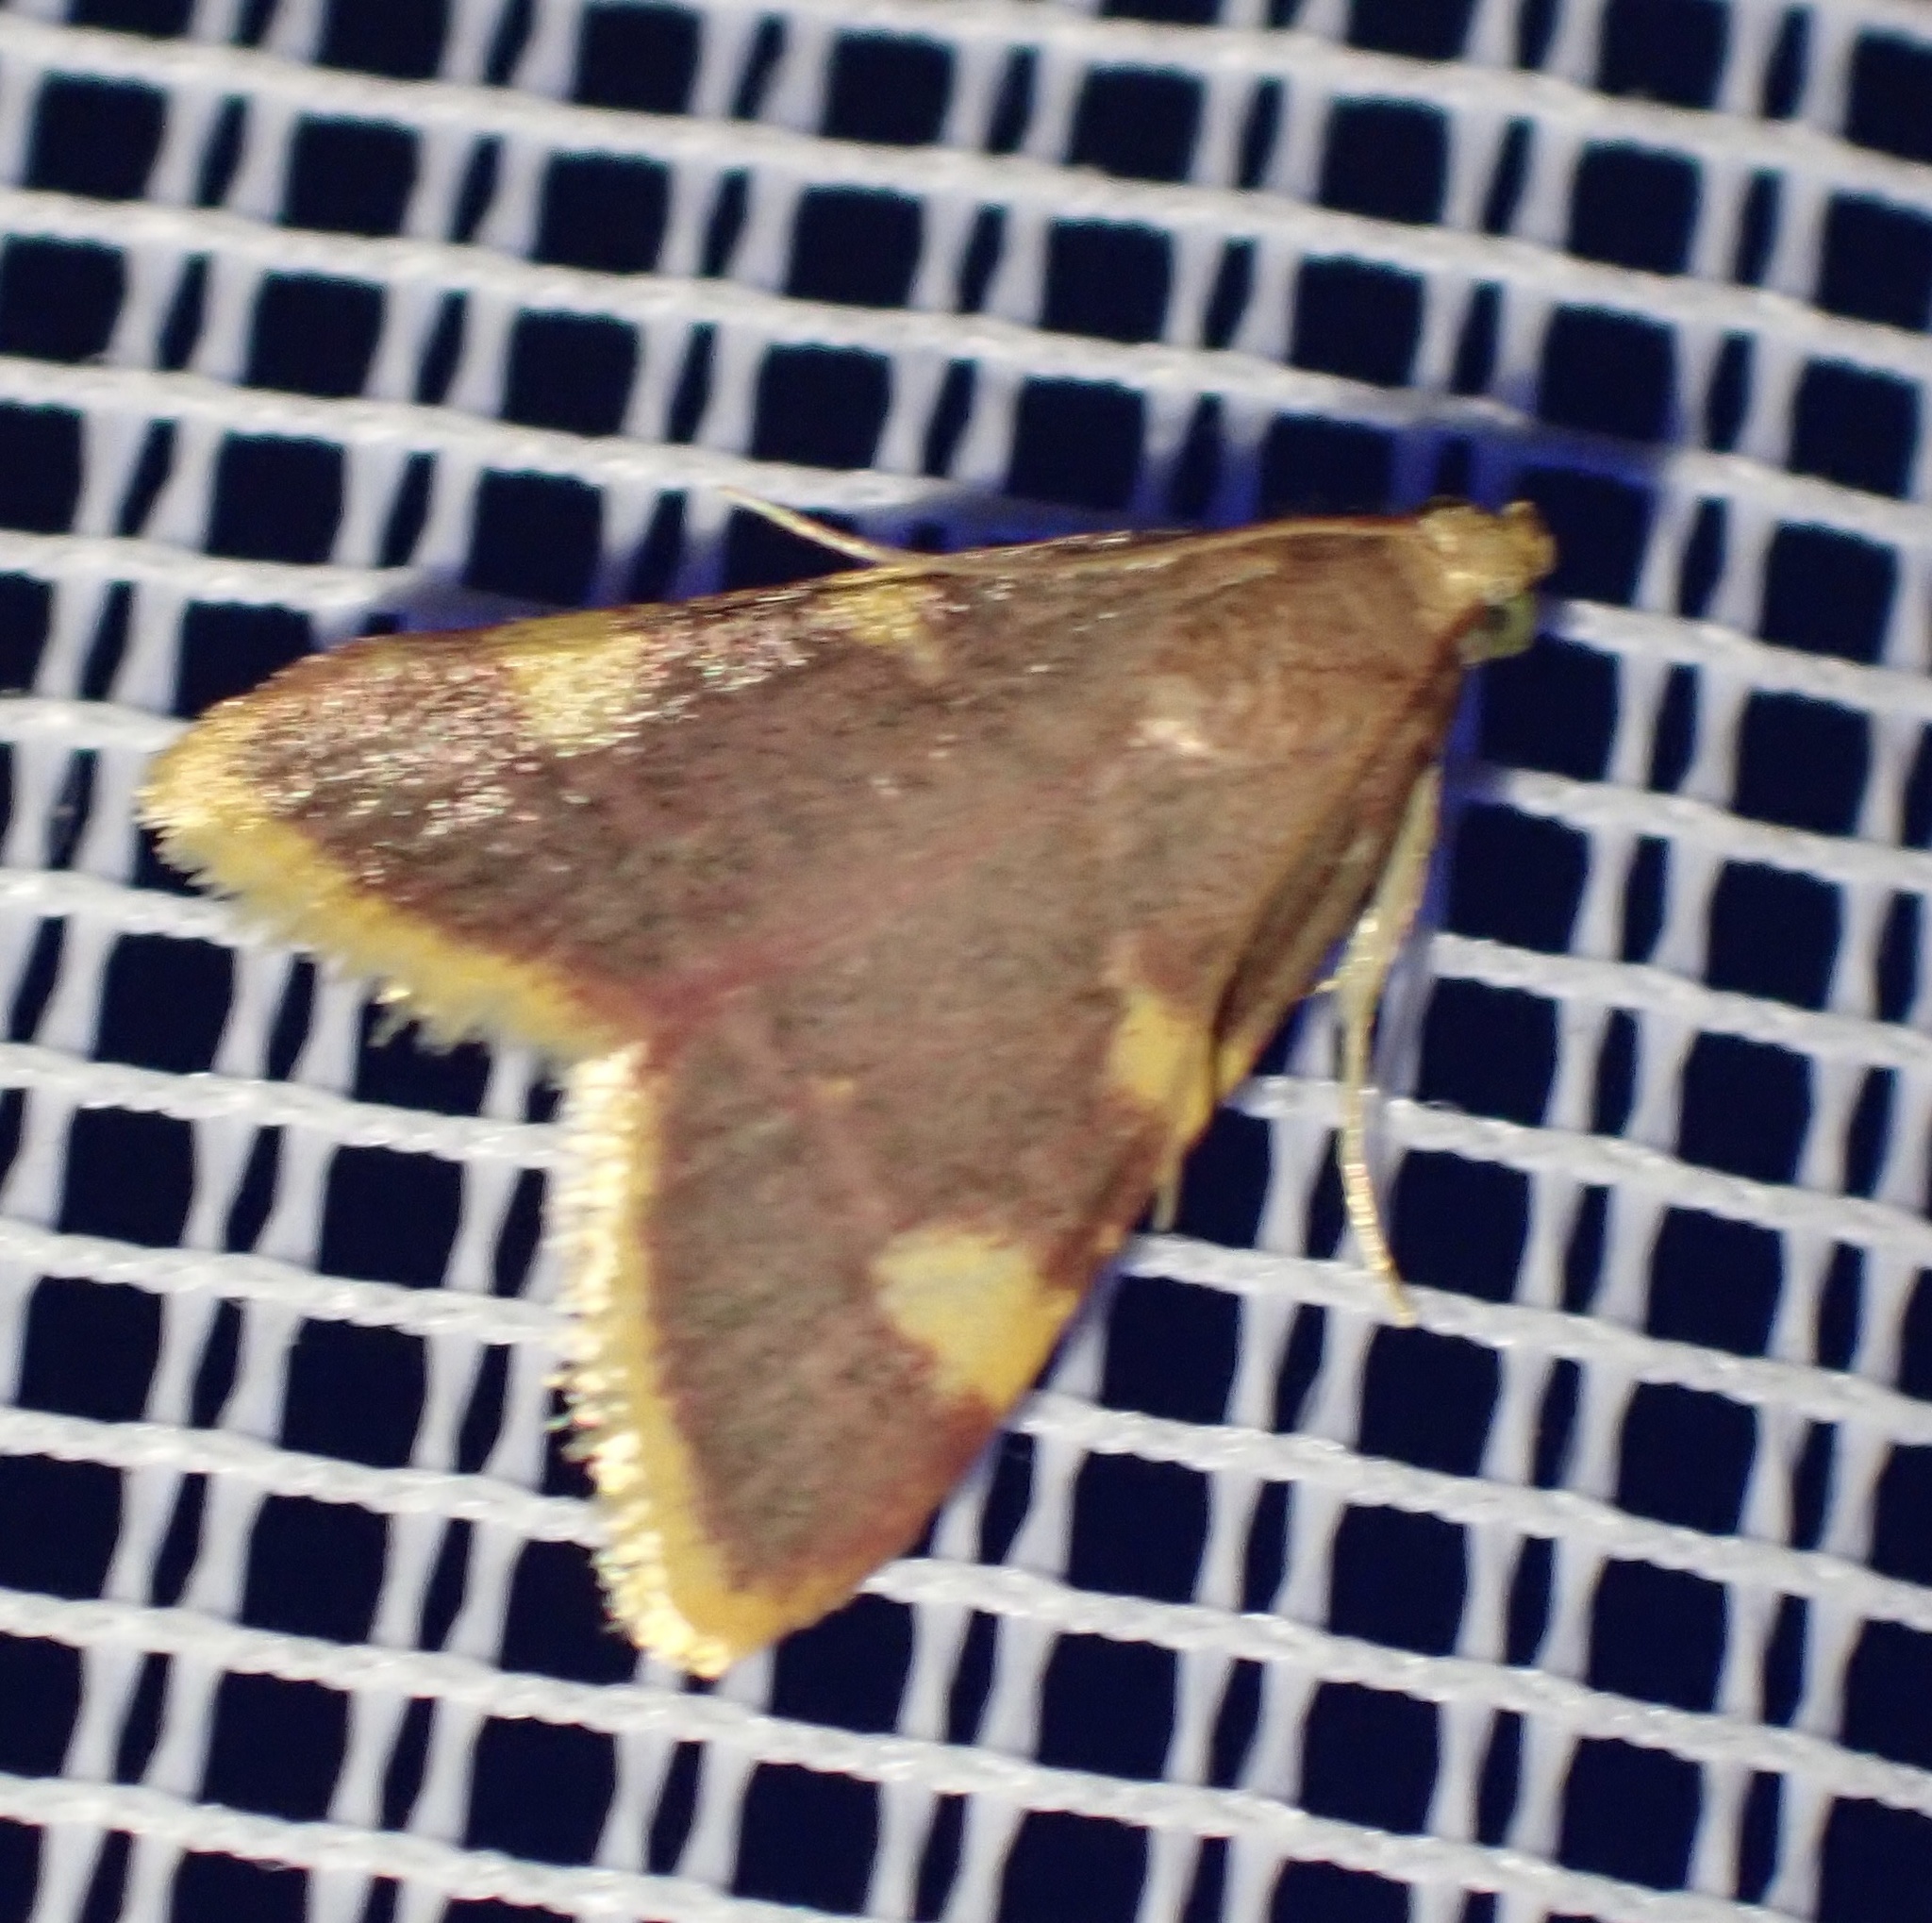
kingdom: Animalia
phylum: Arthropoda
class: Insecta
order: Lepidoptera
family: Pyralidae
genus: Hypsopygia
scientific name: Hypsopygia costalis
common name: Gold triangle
